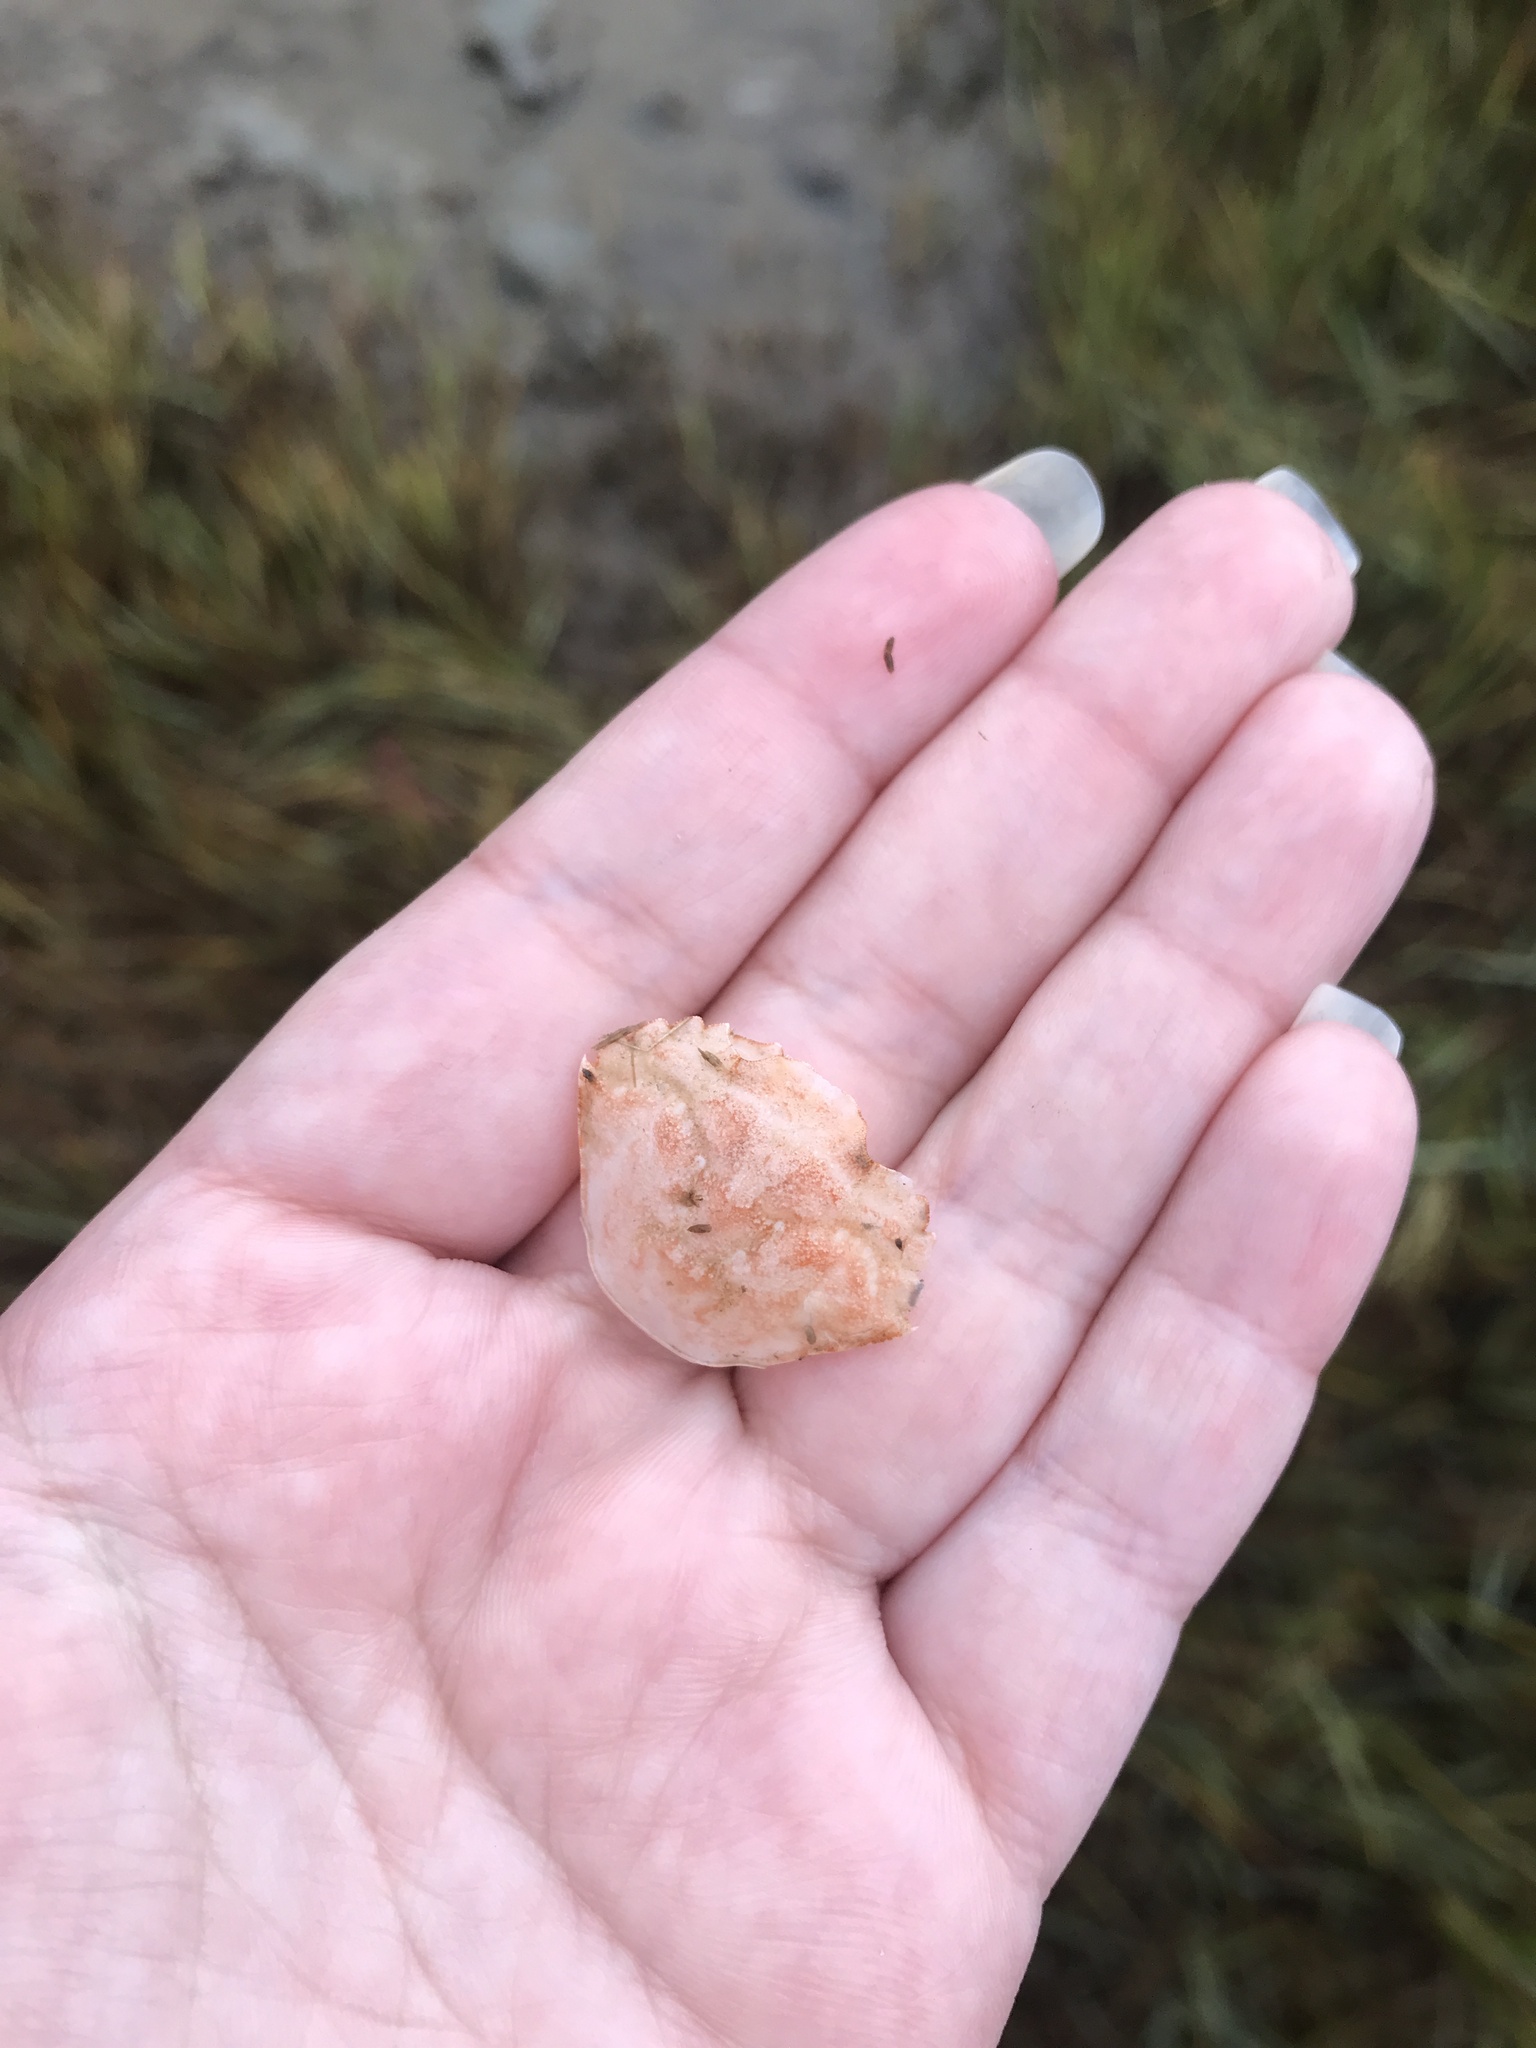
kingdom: Animalia
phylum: Arthropoda
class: Malacostraca
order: Decapoda
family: Carcinidae
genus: Carcinus
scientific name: Carcinus maenas
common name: European green crab
